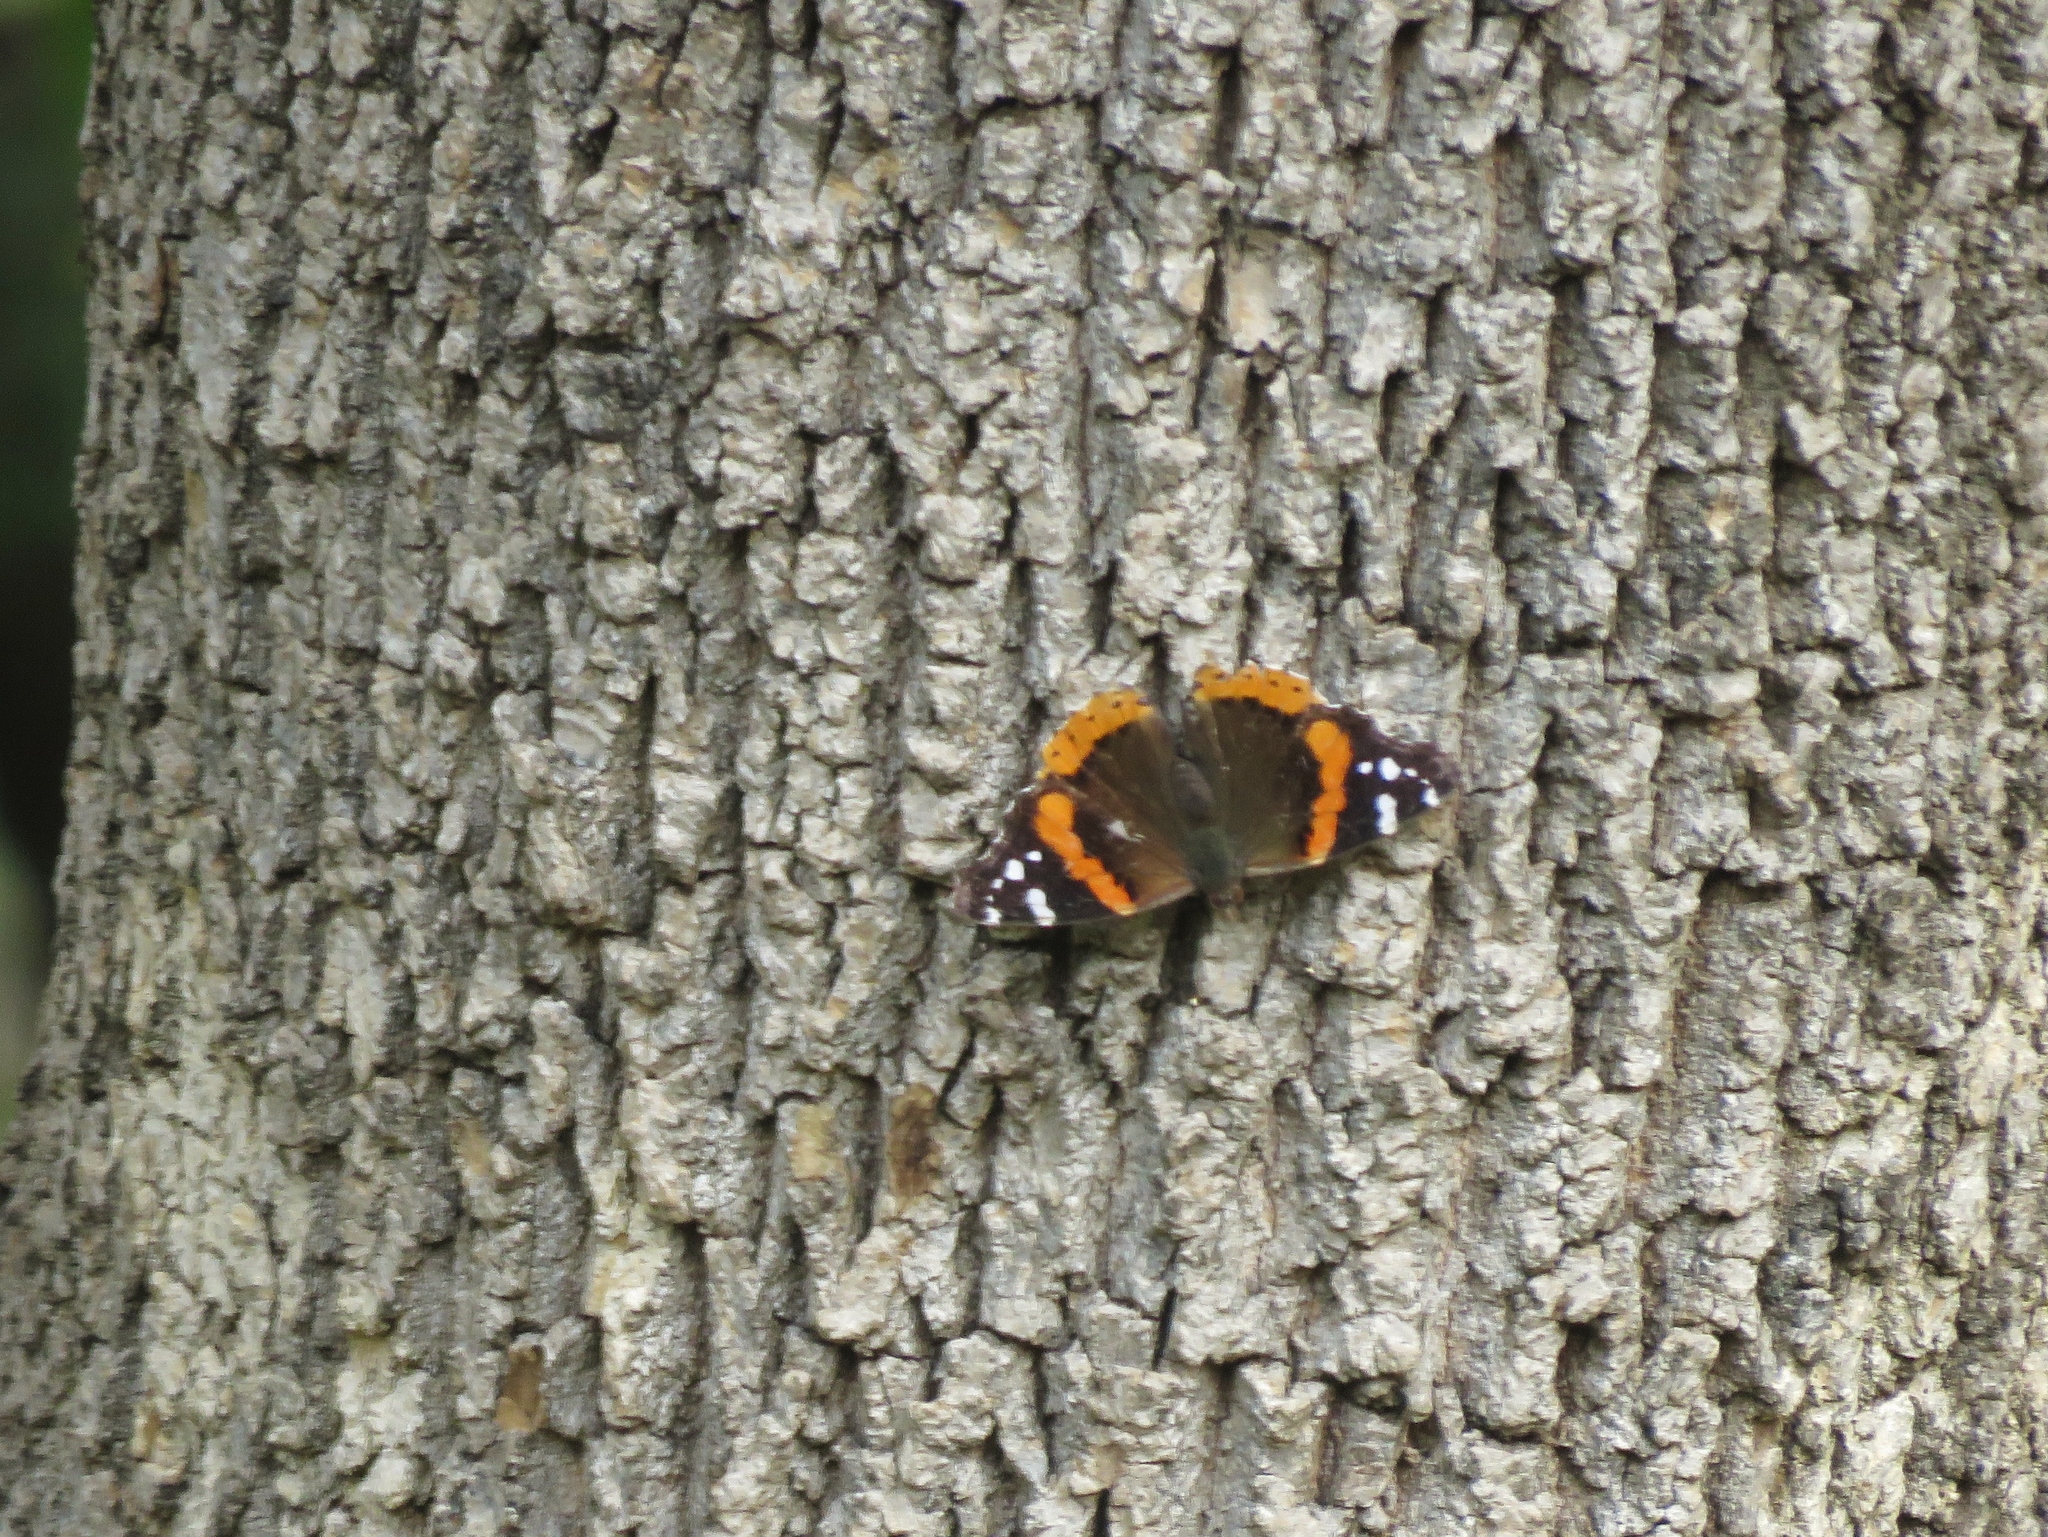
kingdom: Animalia
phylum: Arthropoda
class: Insecta
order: Lepidoptera
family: Nymphalidae
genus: Vanessa
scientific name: Vanessa atalanta
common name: Red admiral
